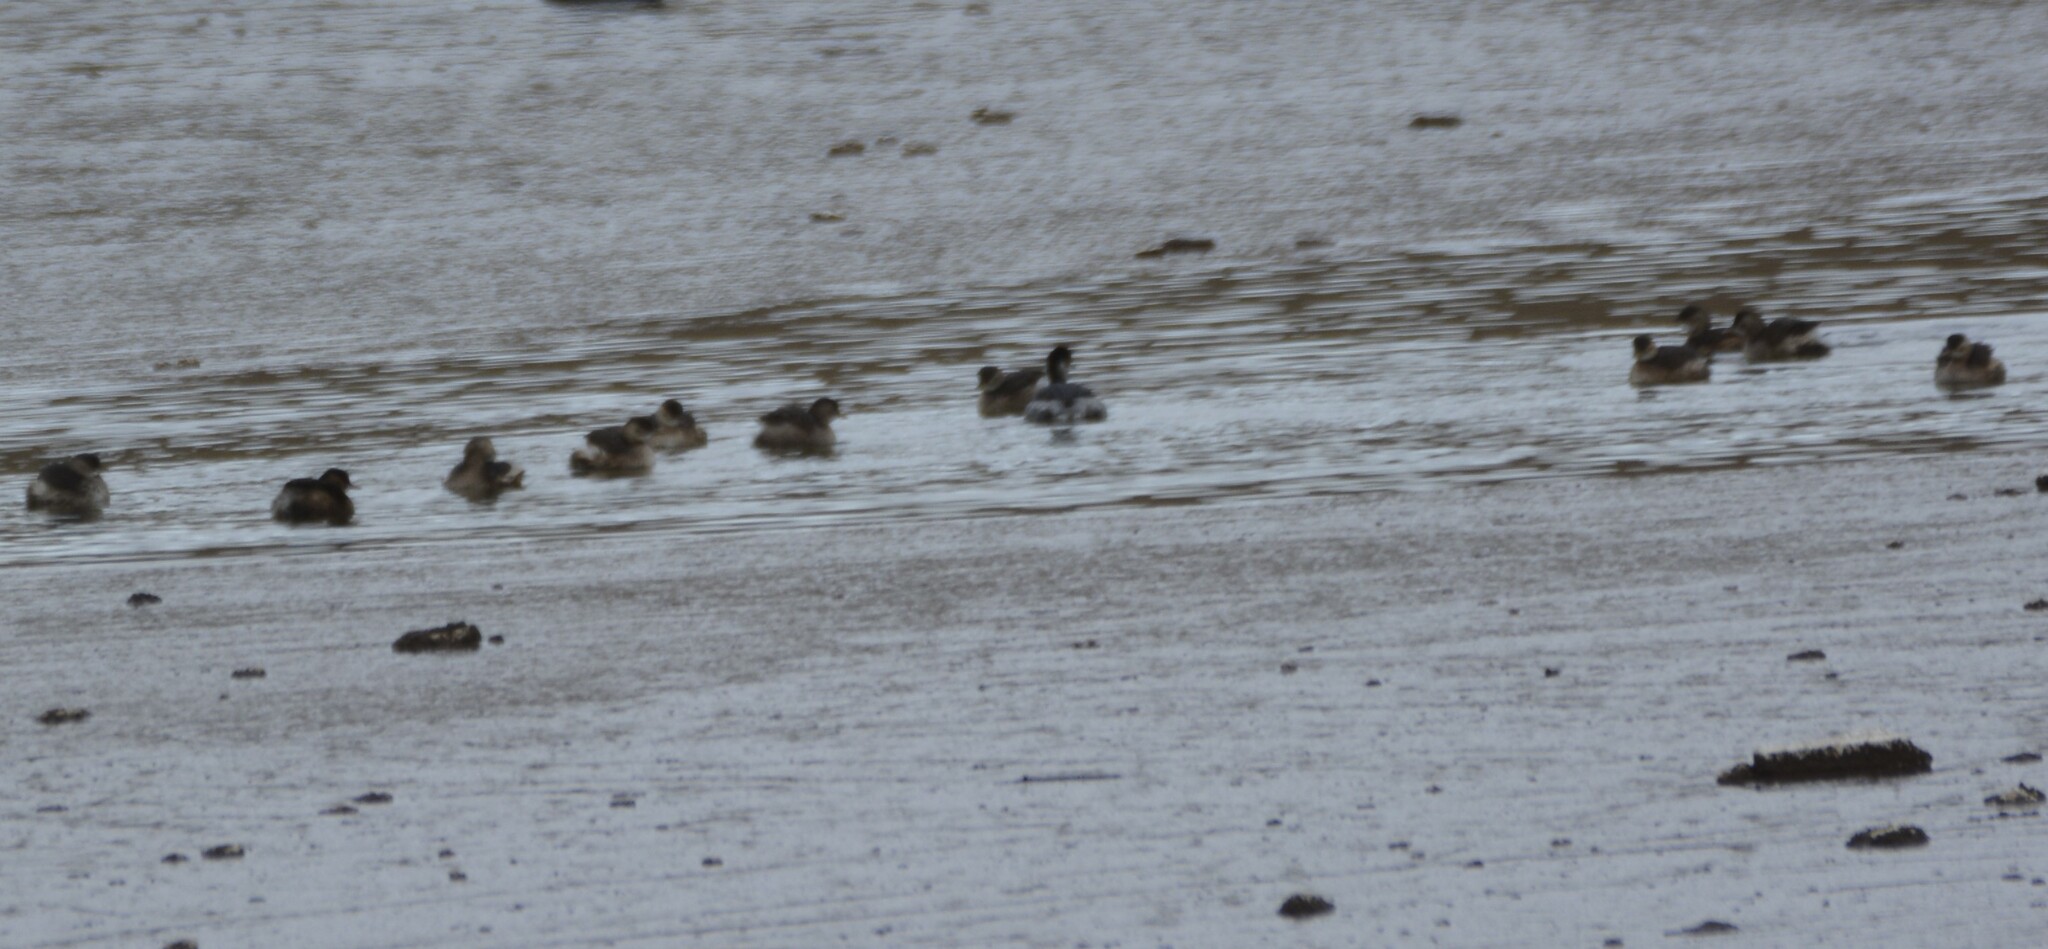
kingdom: Animalia
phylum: Chordata
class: Aves
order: Podicipediformes
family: Podicipedidae
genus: Tachybaptus
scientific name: Tachybaptus ruficollis
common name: Little grebe
